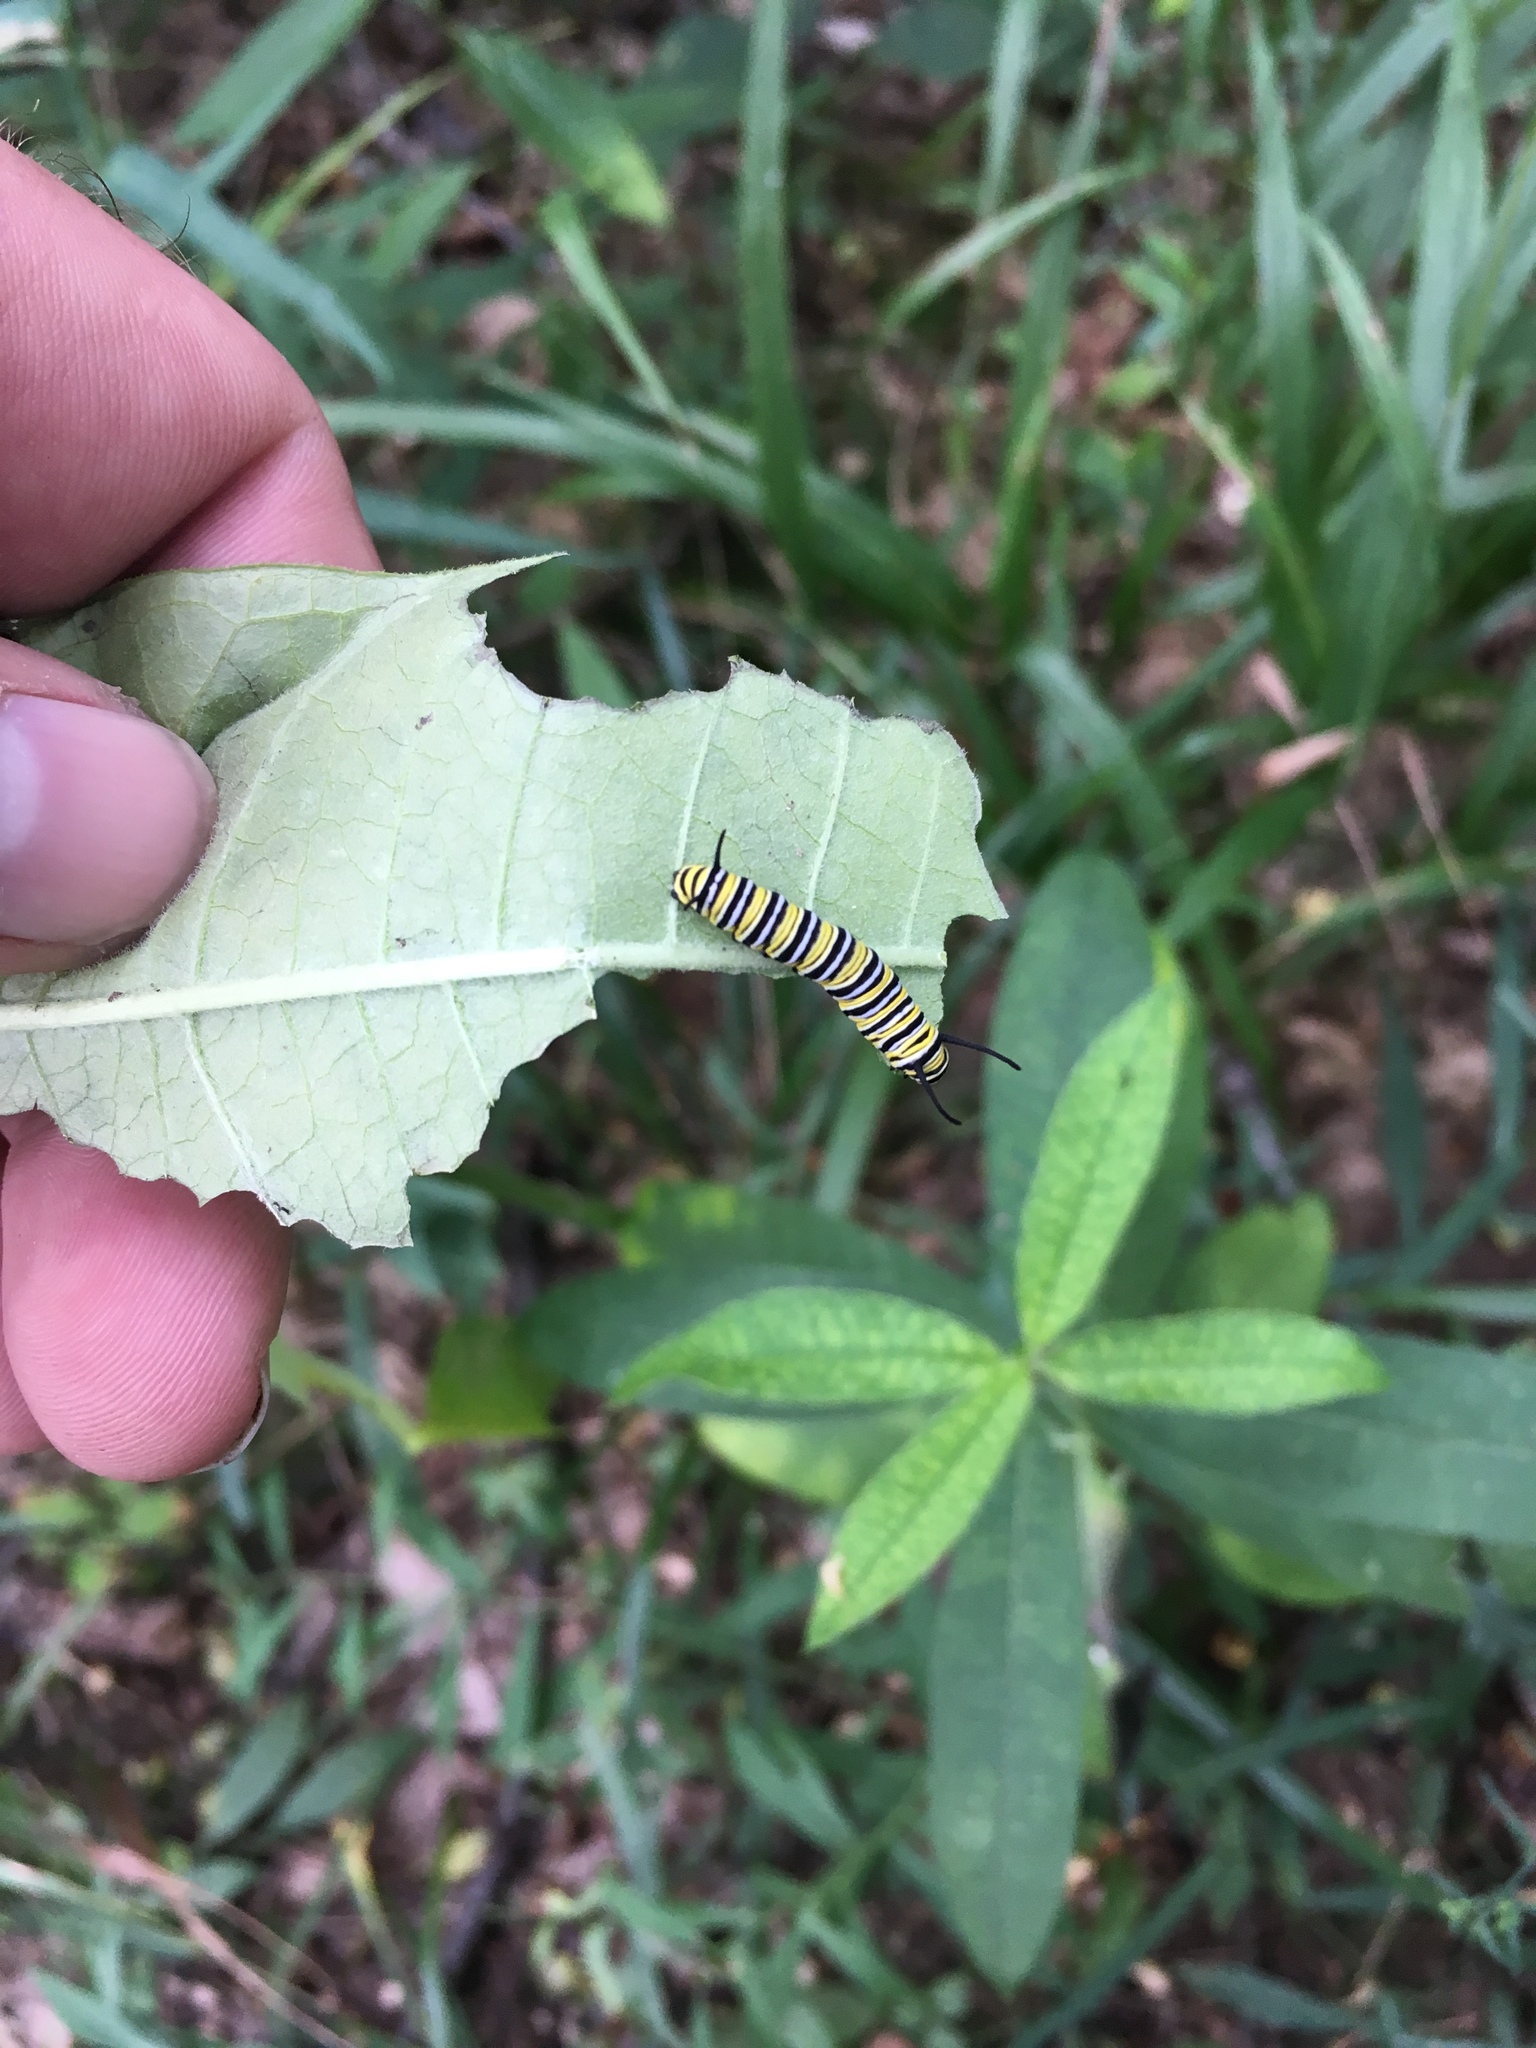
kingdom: Animalia
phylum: Arthropoda
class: Insecta
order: Lepidoptera
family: Nymphalidae
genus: Danaus
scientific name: Danaus plexippus
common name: Monarch
